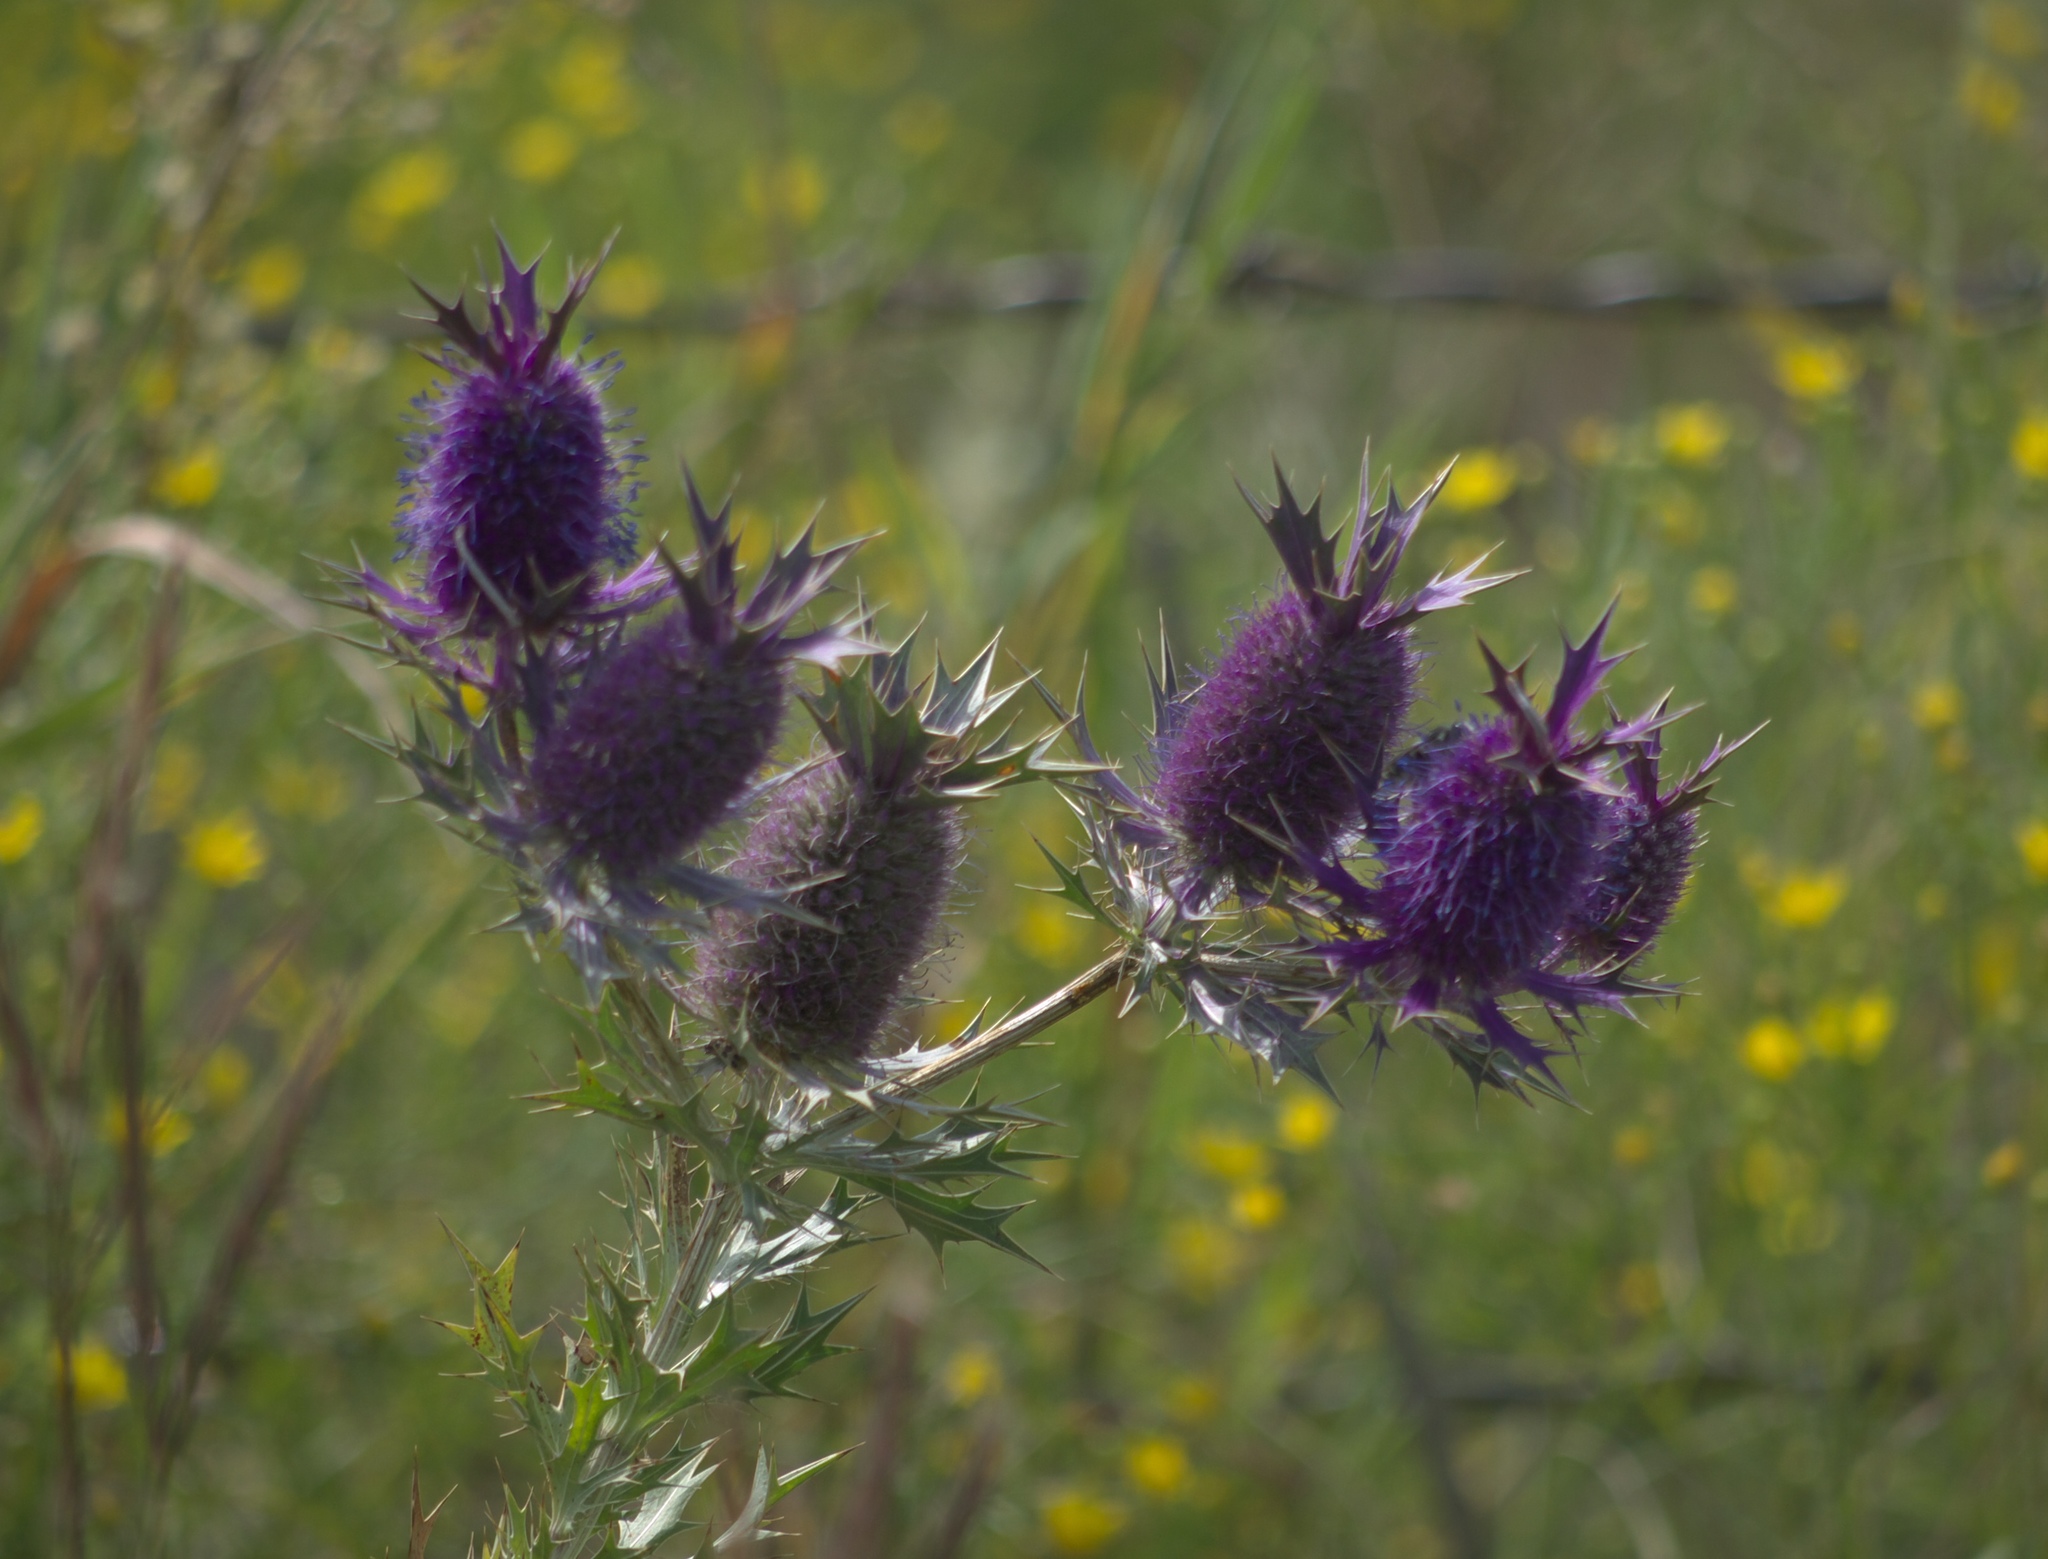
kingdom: Plantae
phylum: Tracheophyta
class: Magnoliopsida
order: Apiales
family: Apiaceae
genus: Eryngium
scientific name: Eryngium leavenworthii
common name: Leavenworth's eryngo
